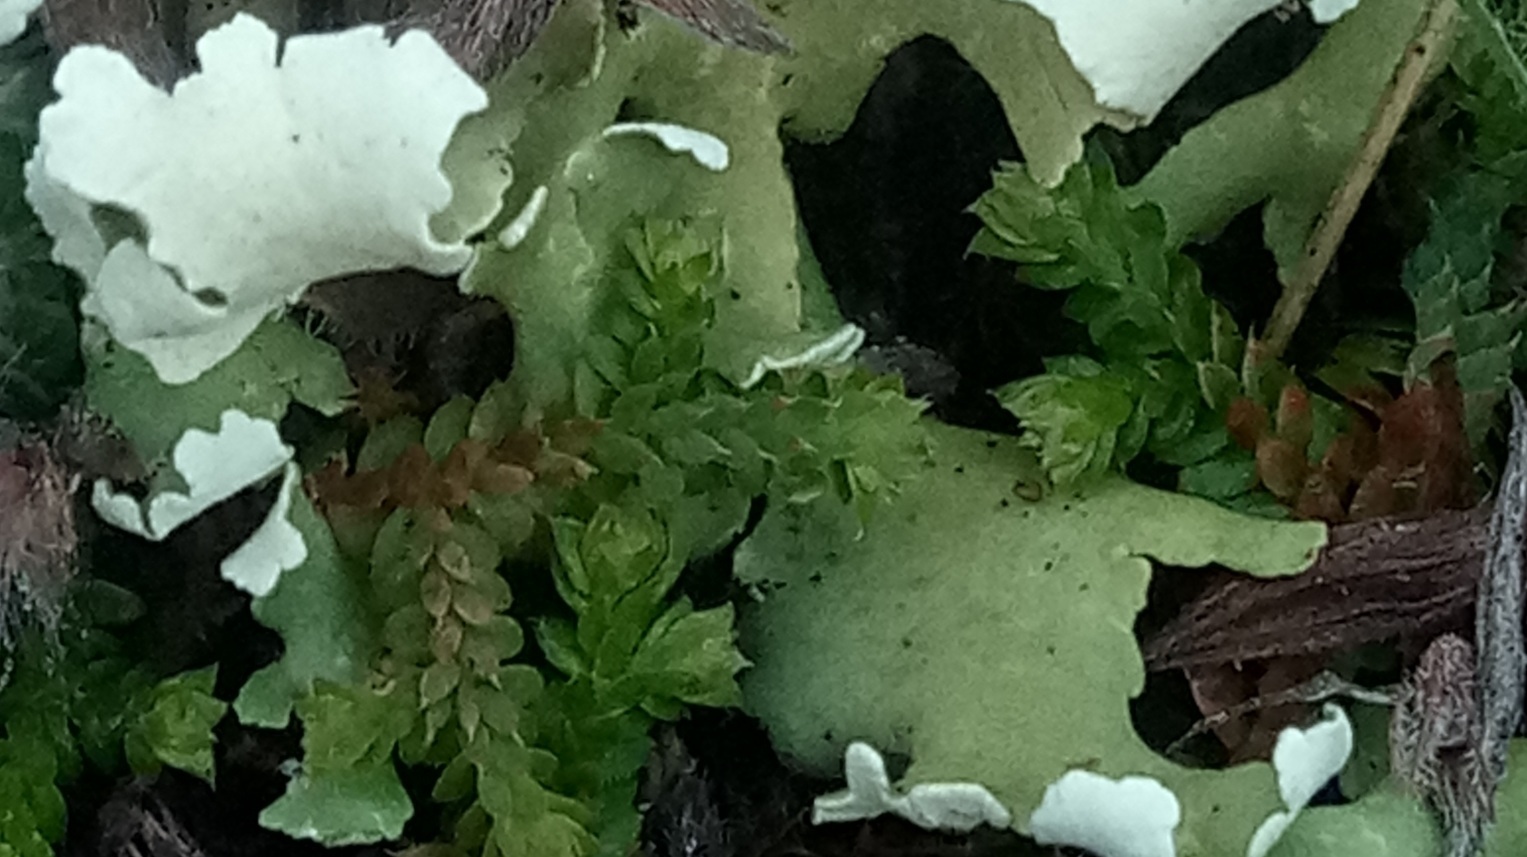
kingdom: Plantae
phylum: Tracheophyta
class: Lycopodiopsida
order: Selaginellales
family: Selaginellaceae
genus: Selaginella
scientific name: Selaginella denticulata
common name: Toothed-leaved clubmoss
